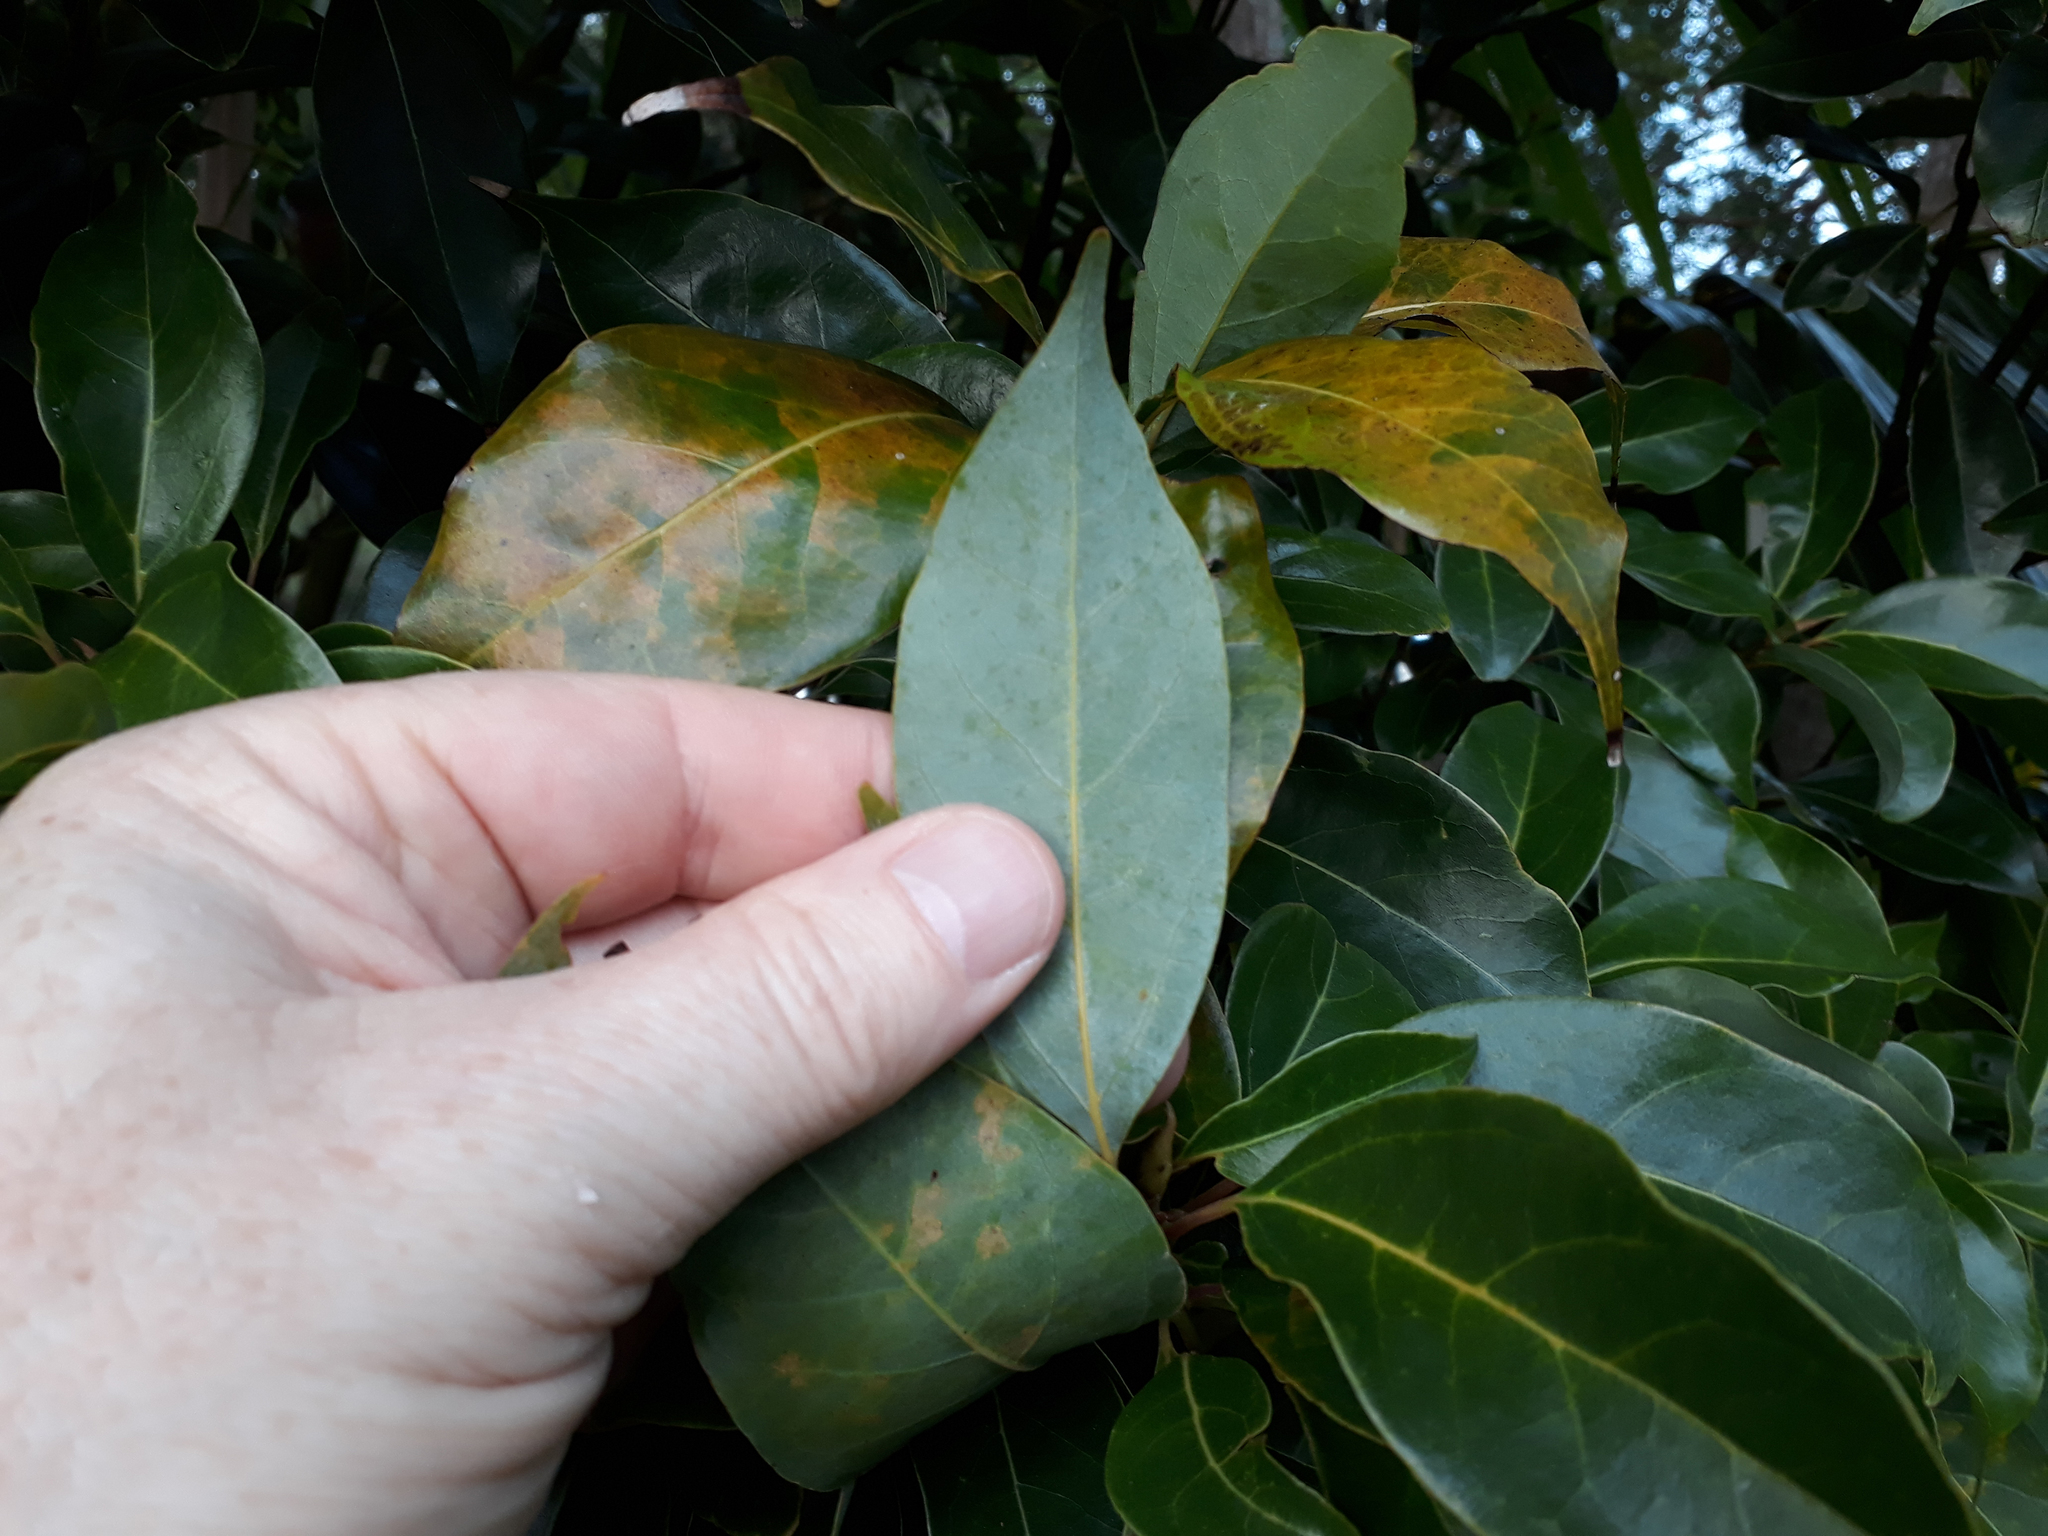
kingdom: Plantae
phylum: Tracheophyta
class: Magnoliopsida
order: Laurales
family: Lauraceae
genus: Cinnamomum
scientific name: Cinnamomum camphora
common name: Camphortree
